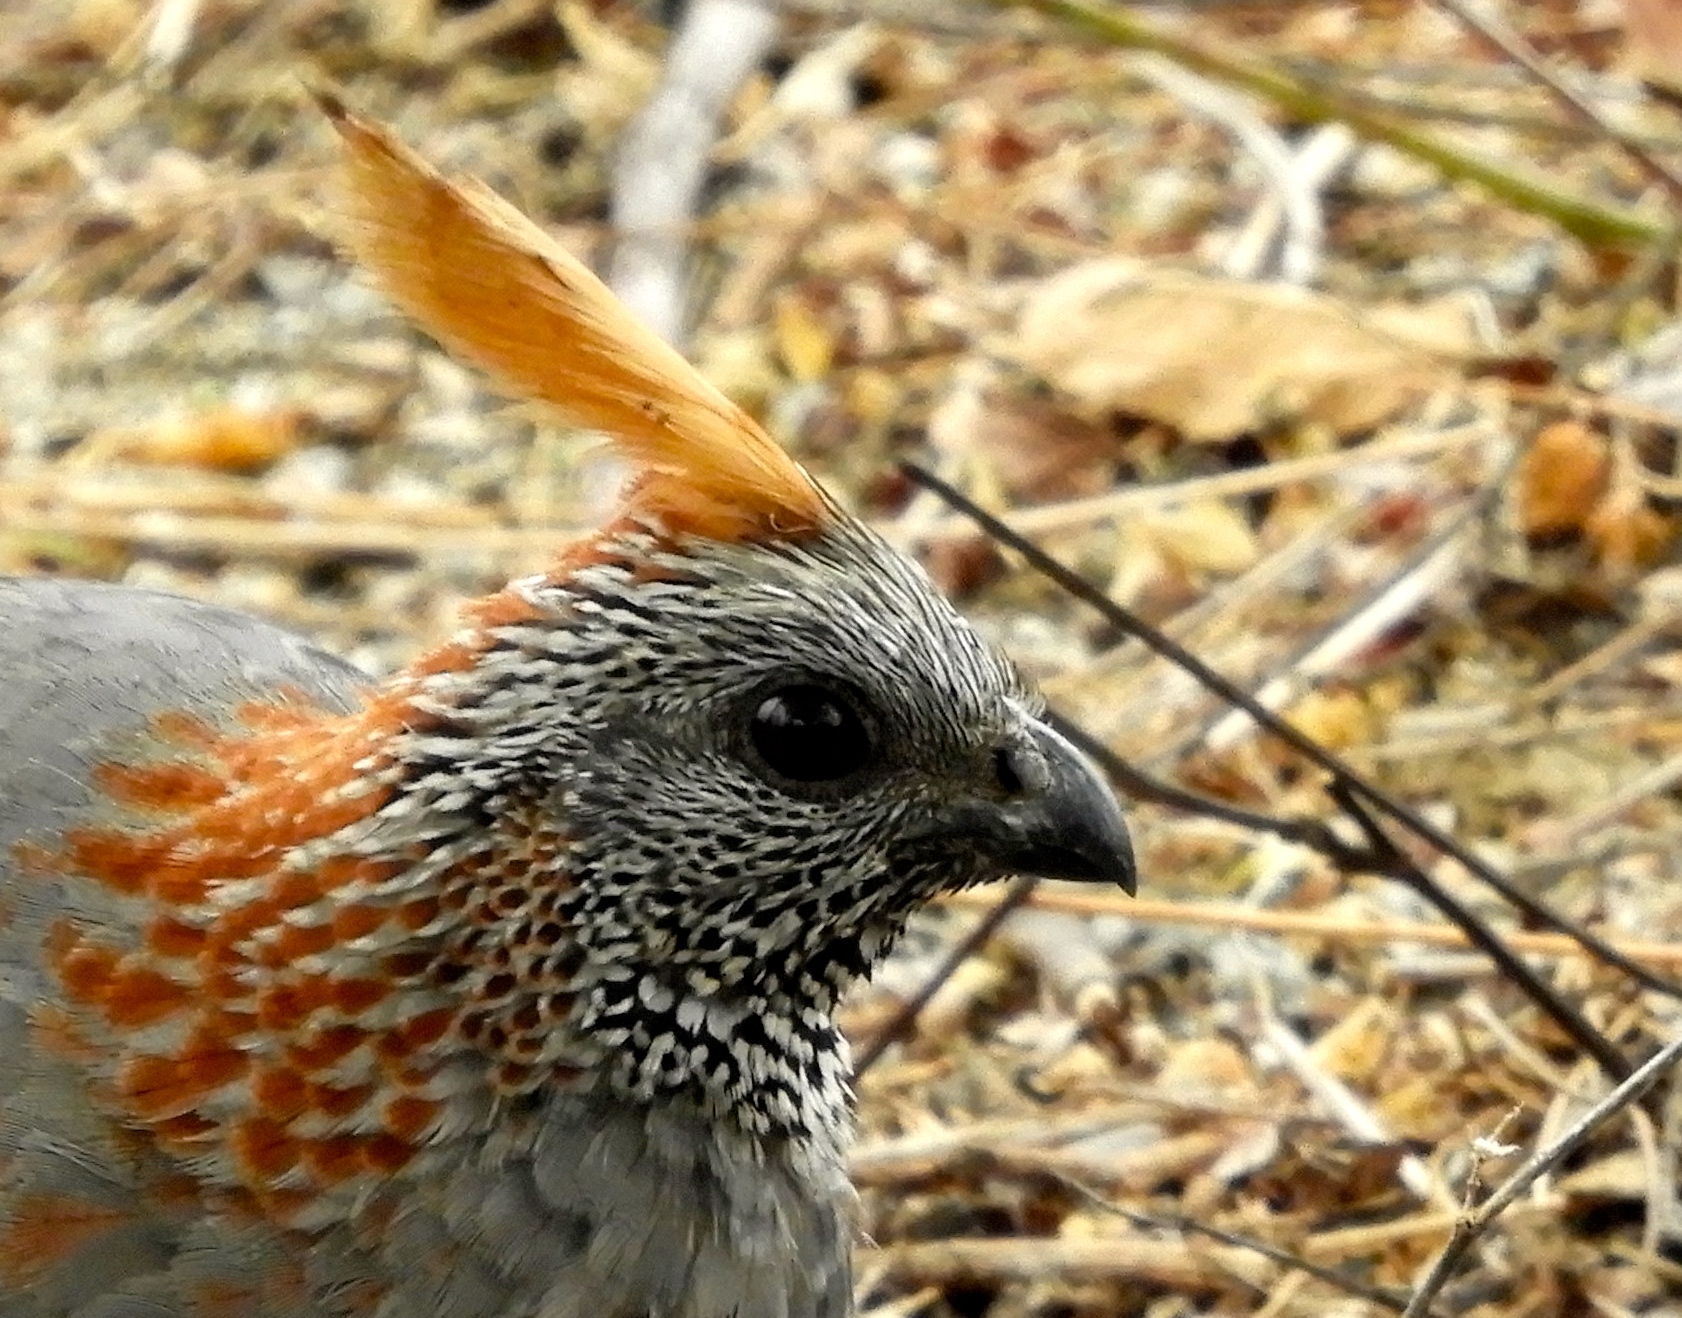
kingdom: Animalia
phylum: Chordata
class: Aves
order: Galliformes
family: Odontophoridae
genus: Callipepla
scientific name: Callipepla douglasii
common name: Elegant quail
